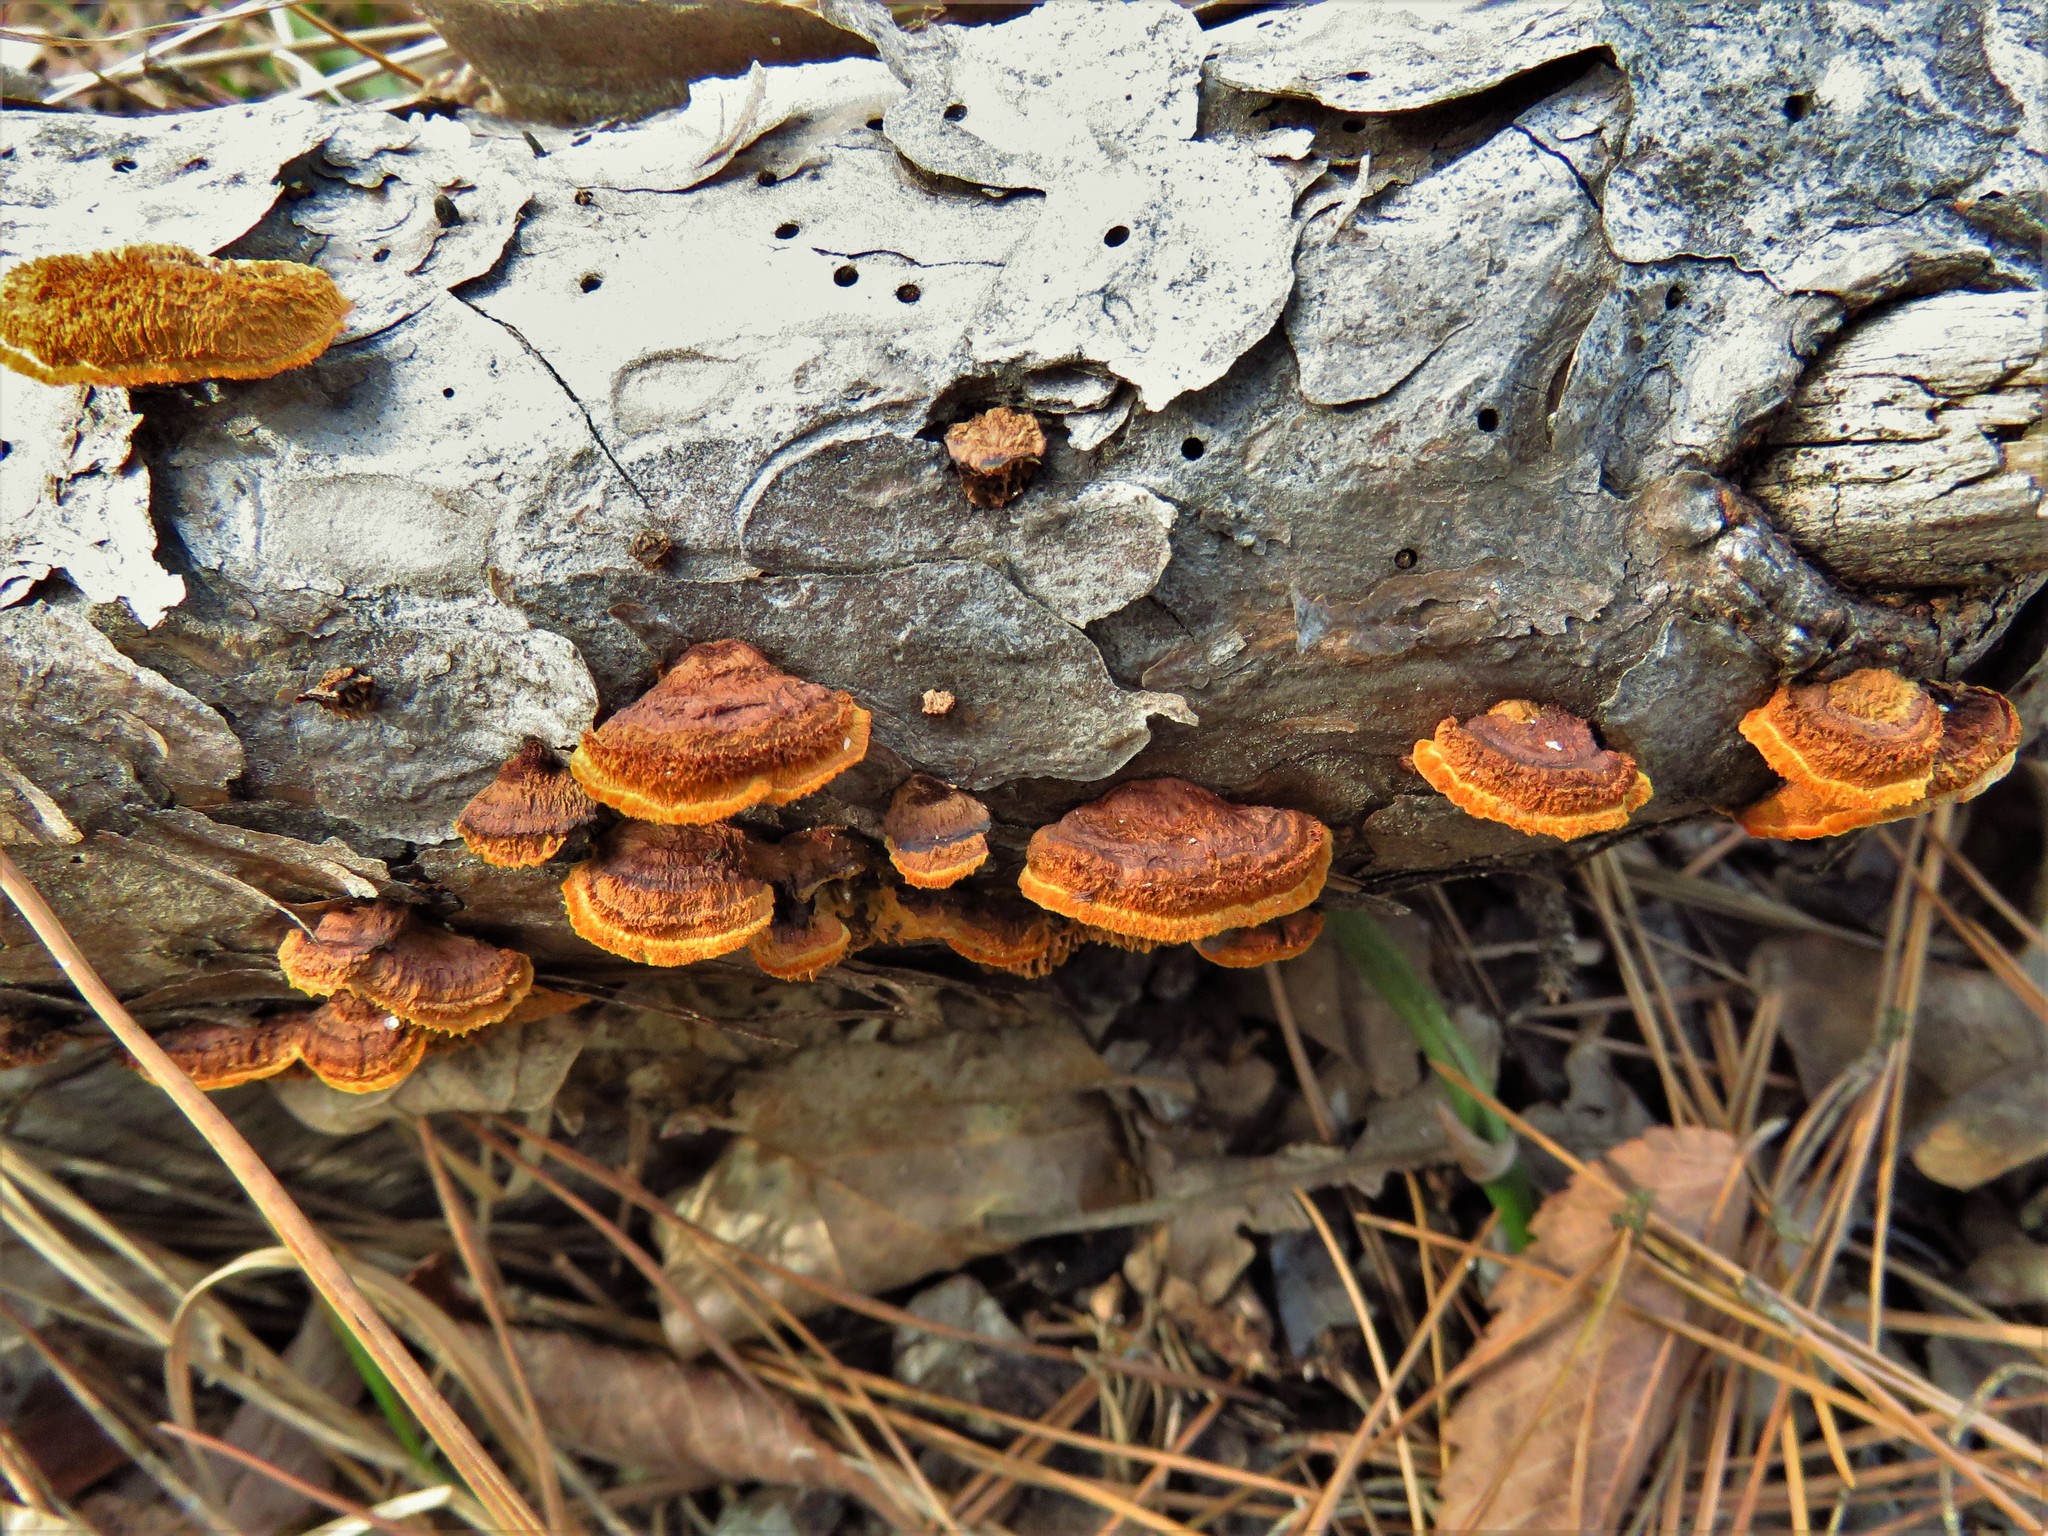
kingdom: Fungi
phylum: Basidiomycota
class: Agaricomycetes
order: Gloeophyllales
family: Gloeophyllaceae
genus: Gloeophyllum
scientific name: Gloeophyllum sepiarium
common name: Conifer mazegill
